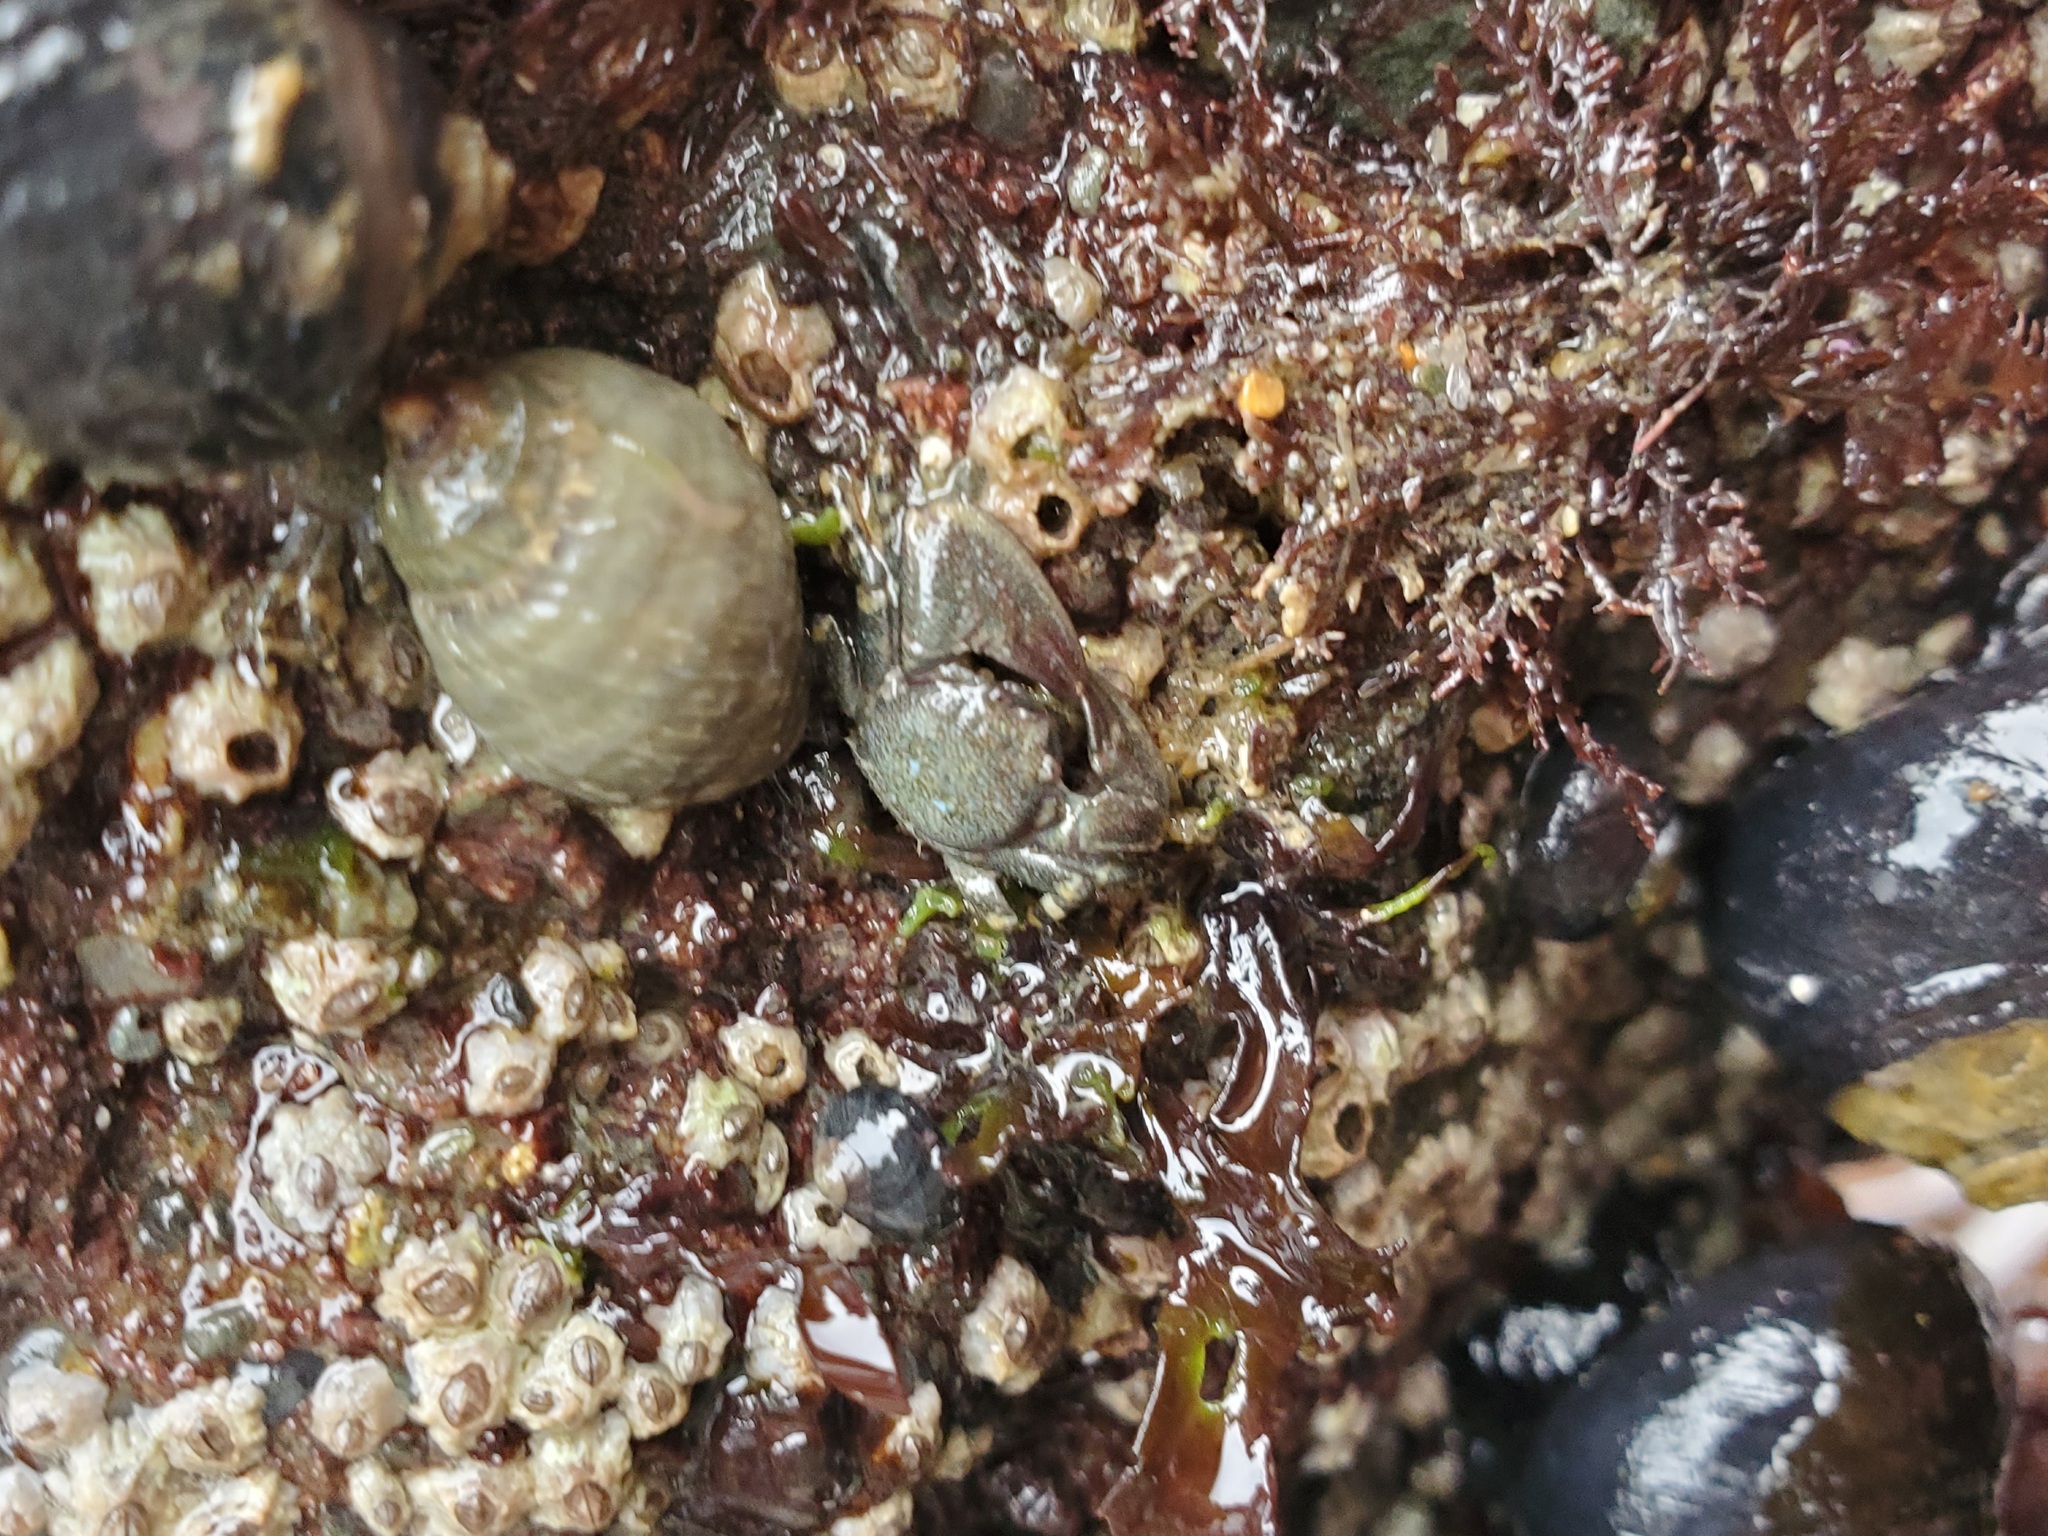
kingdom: Animalia
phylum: Arthropoda
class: Malacostraca
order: Decapoda
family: Porcellanidae
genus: Petrolisthes
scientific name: Petrolisthes cinctipes
